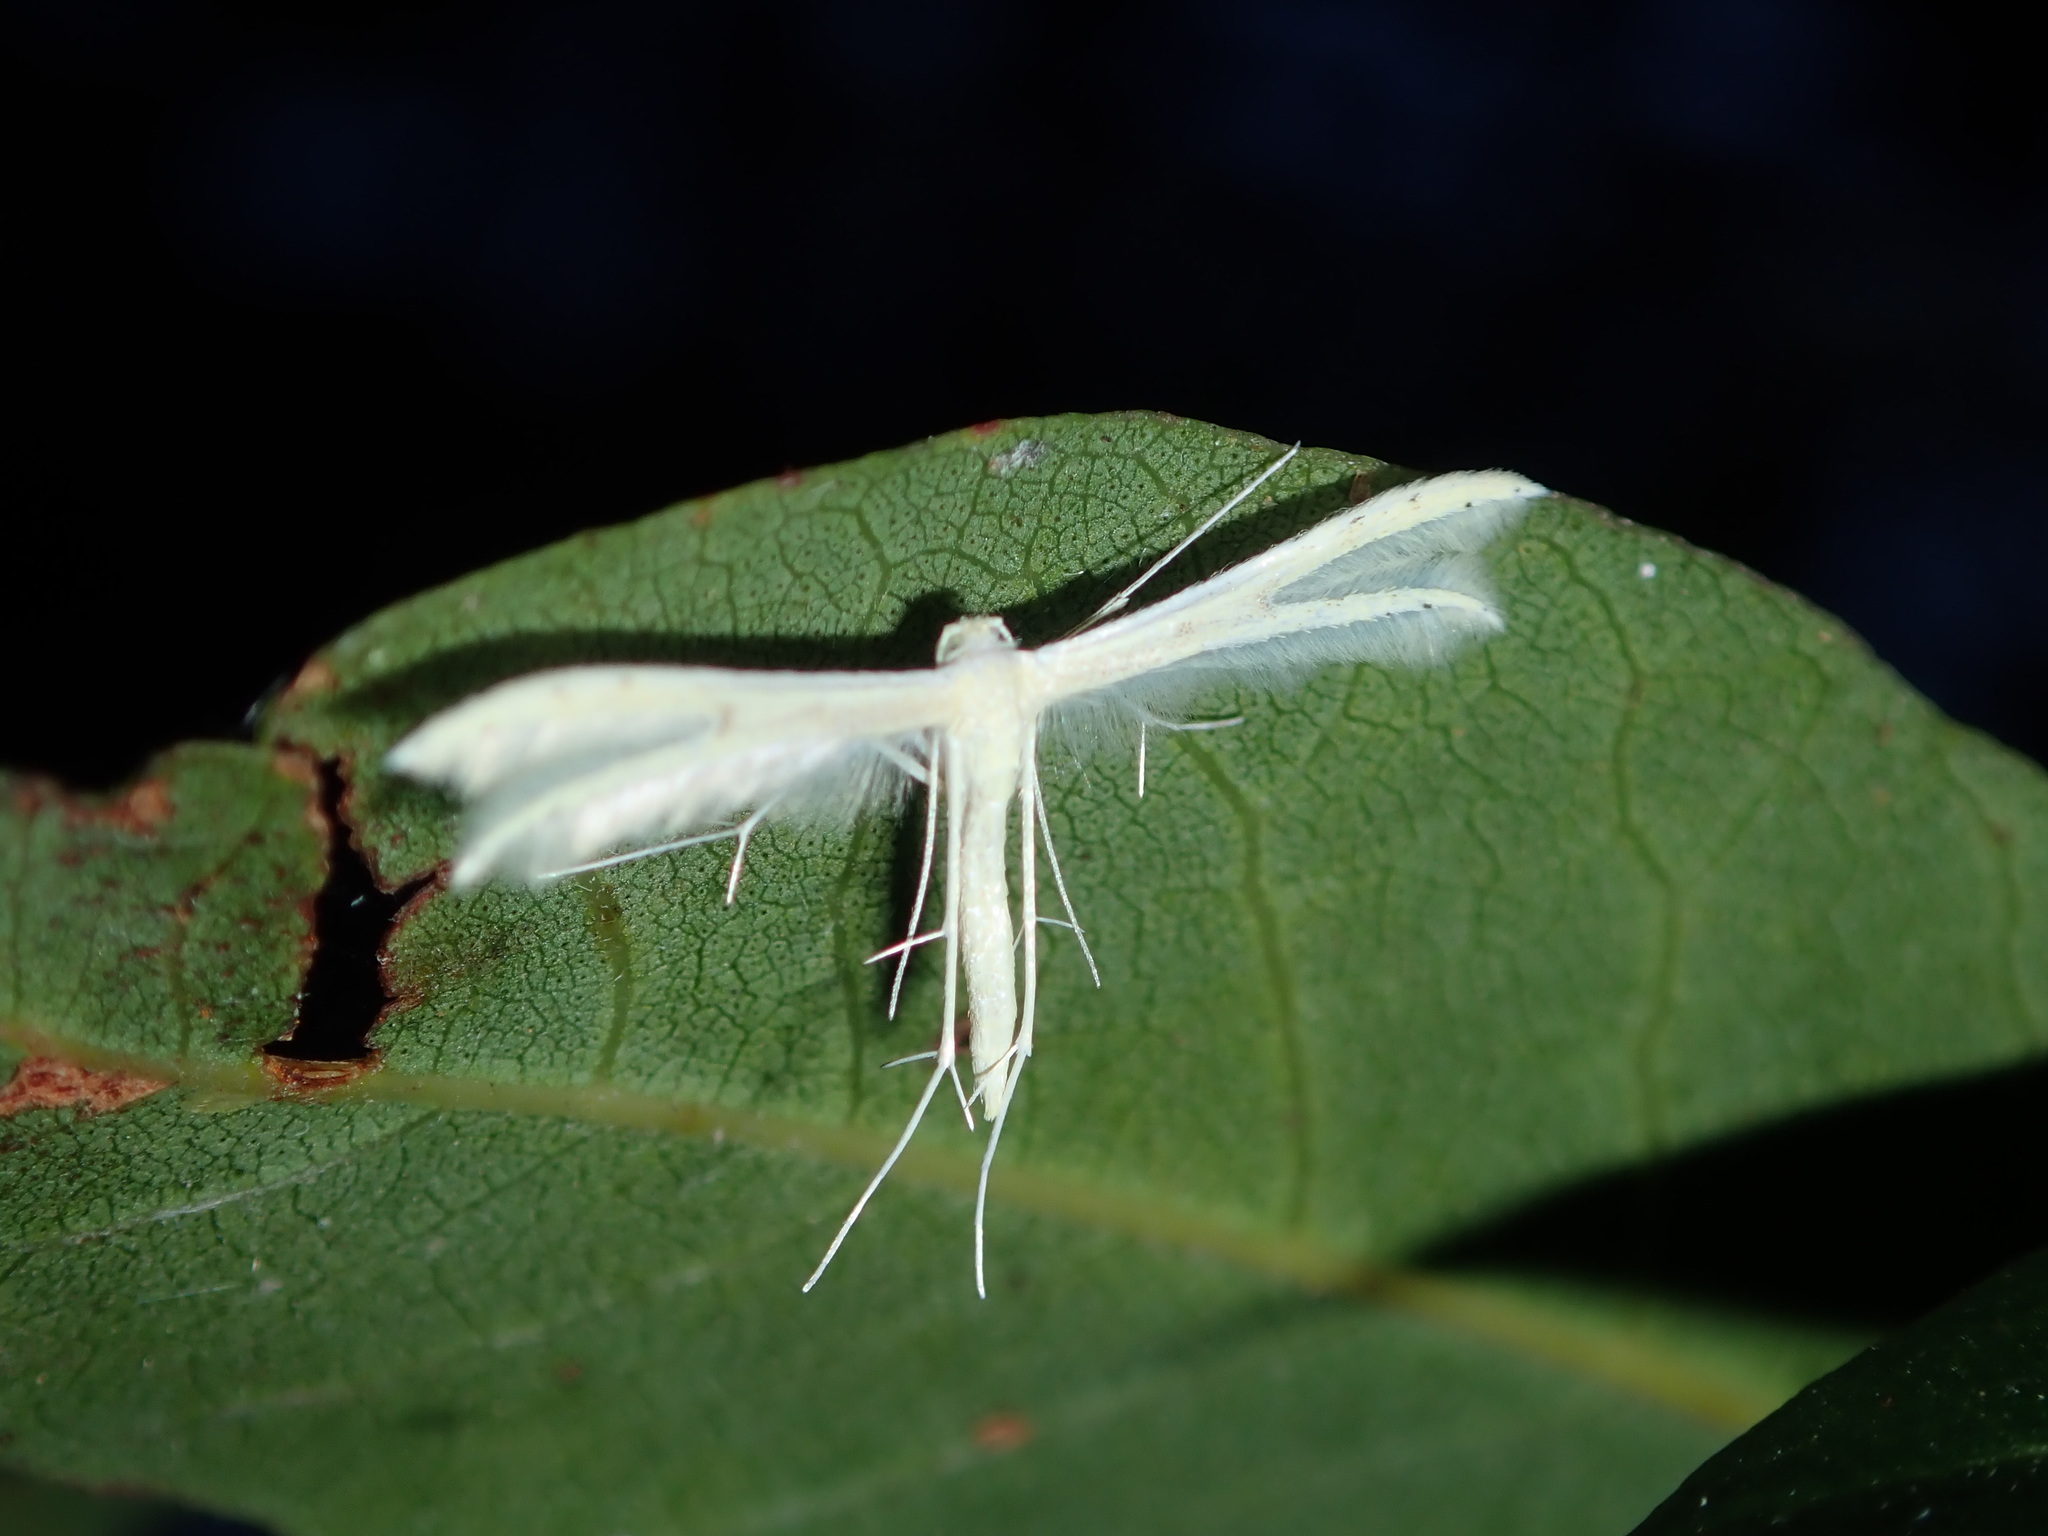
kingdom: Animalia
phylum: Arthropoda
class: Insecta
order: Lepidoptera
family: Pterophoridae
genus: Imbophorus
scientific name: Imbophorus aptalis
